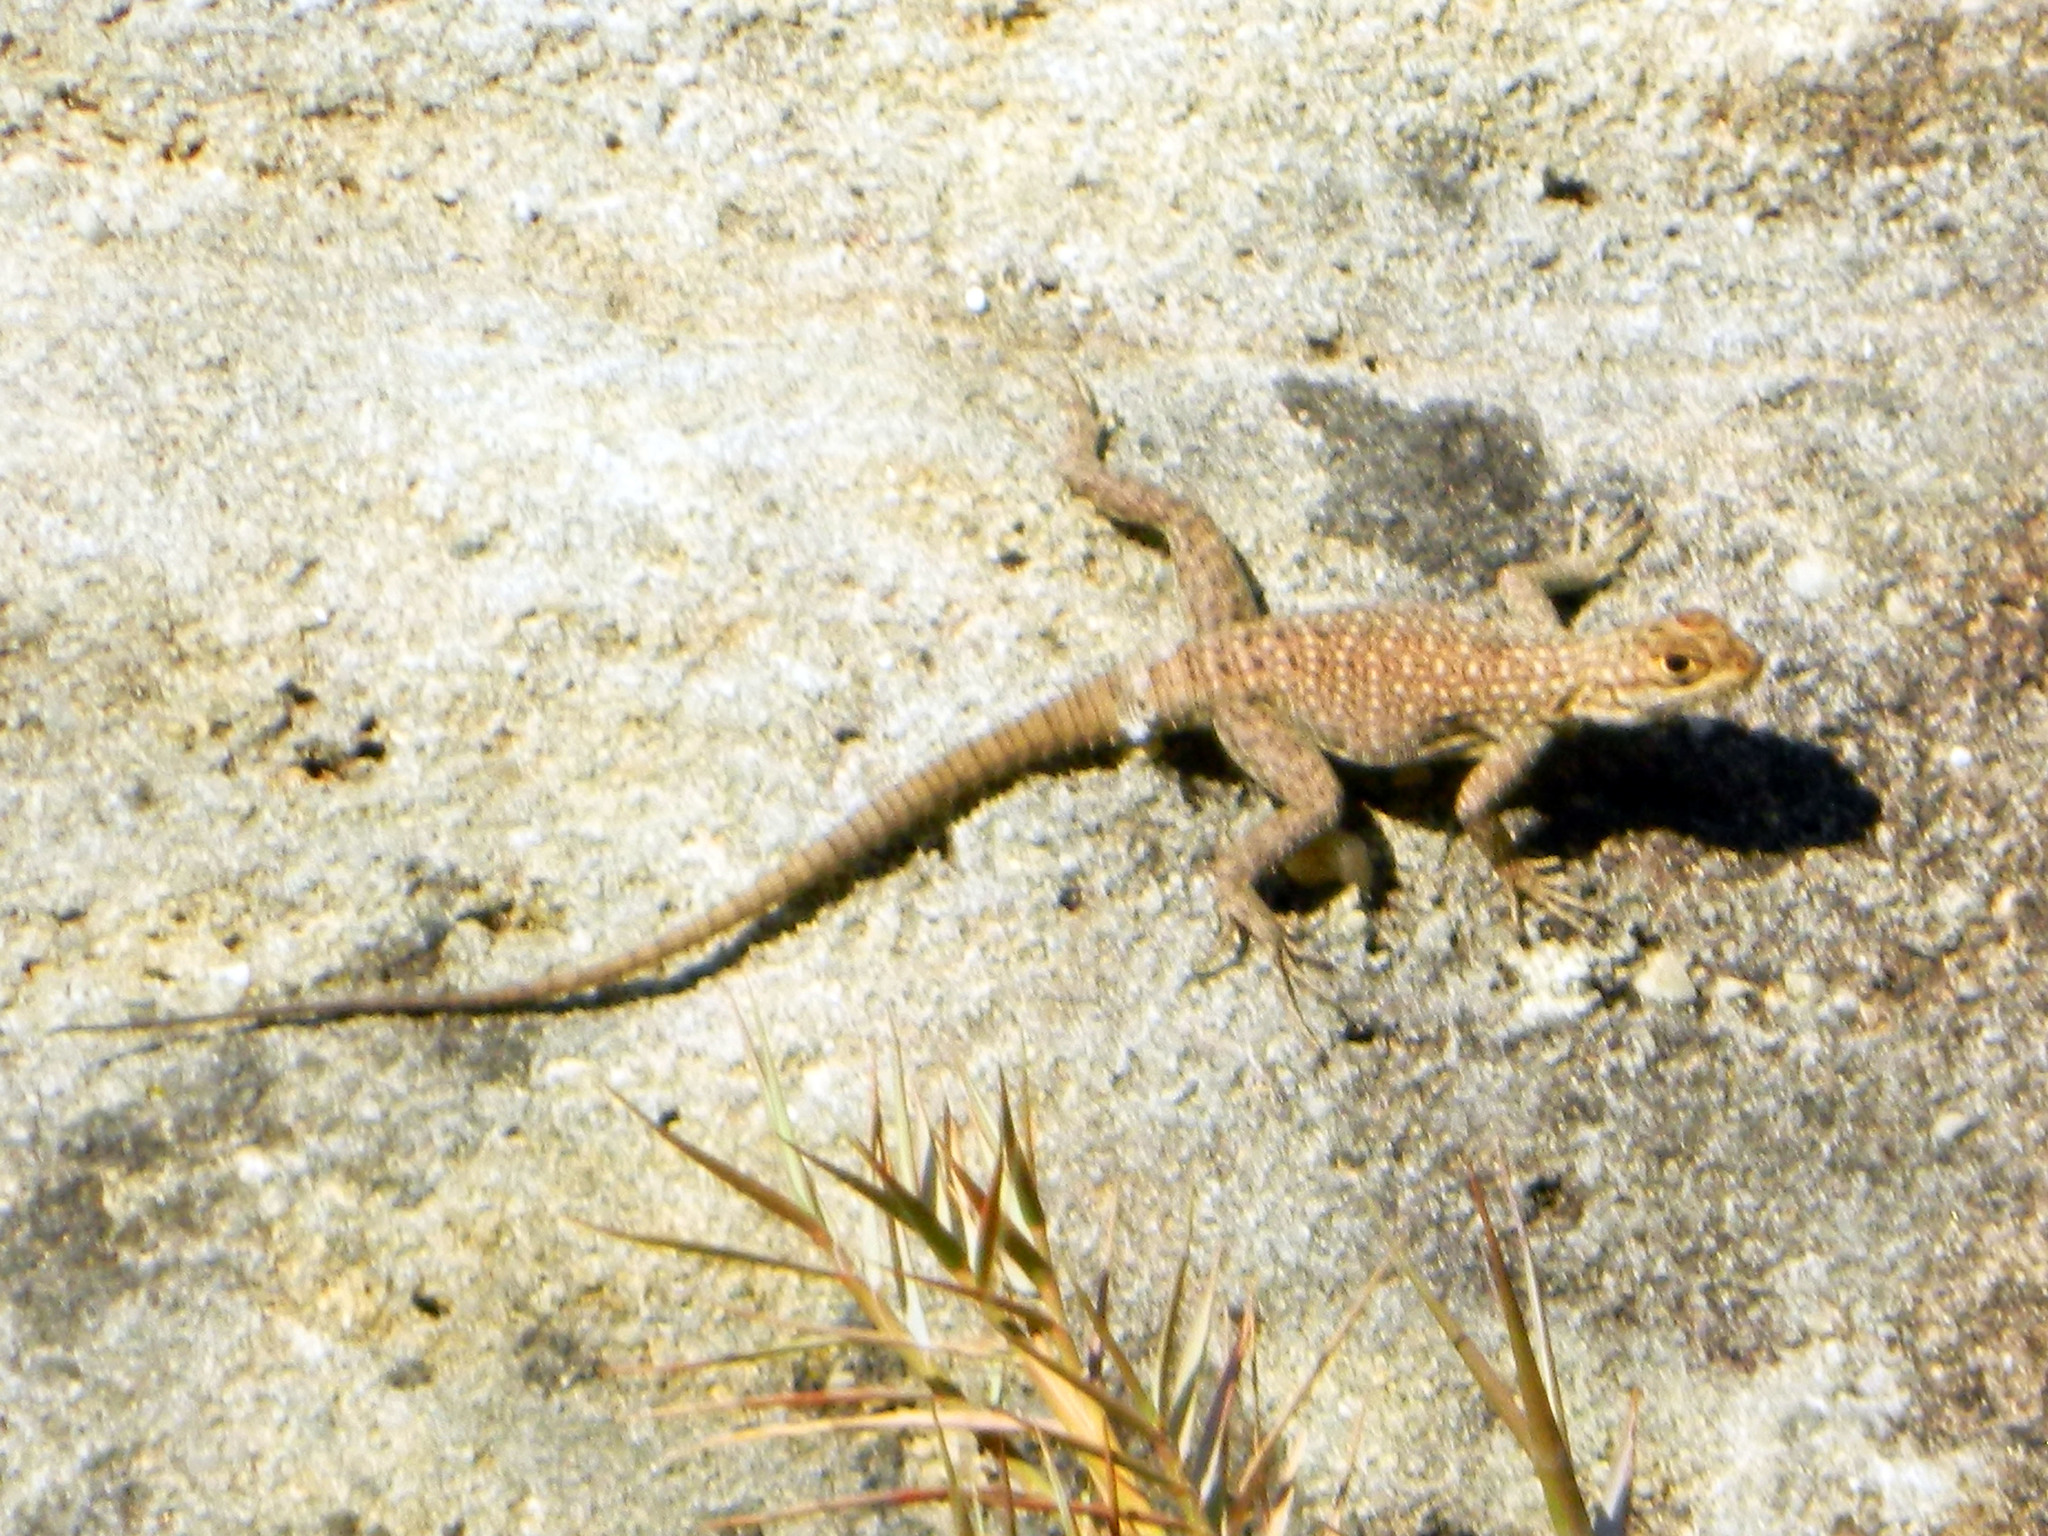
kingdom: Animalia
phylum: Chordata
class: Squamata
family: Opluridae
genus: Oplurus
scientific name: Oplurus quadrimaculatus
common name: Duméril's madagascar swift
